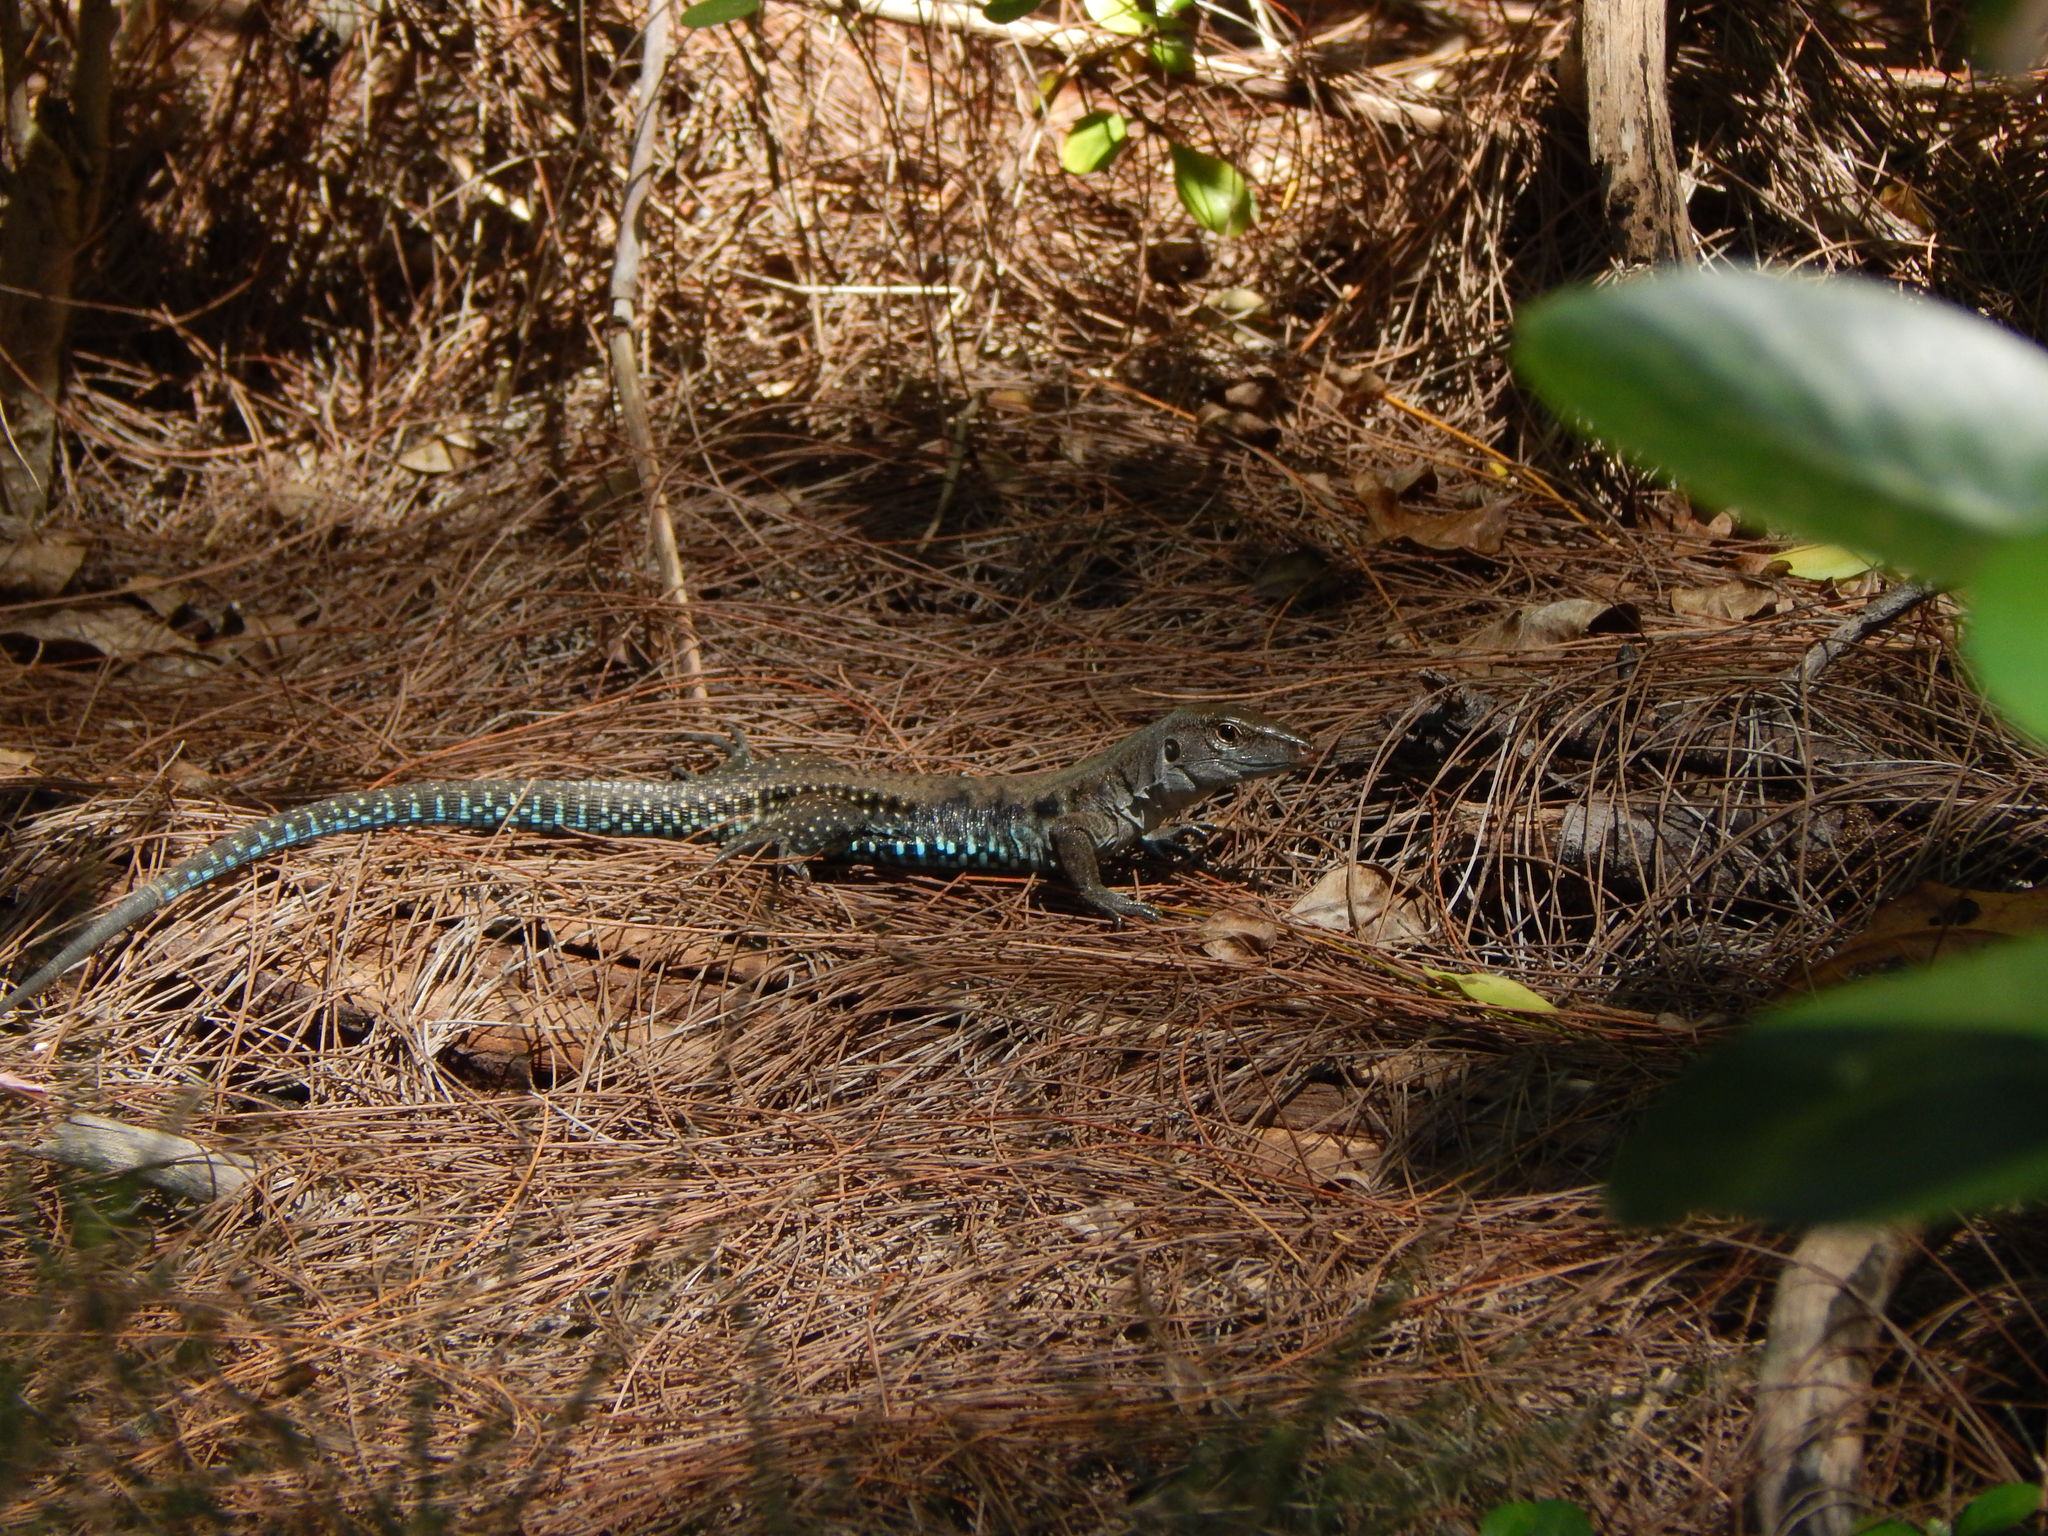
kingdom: Animalia
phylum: Chordata
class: Squamata
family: Teiidae
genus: Pholidoscelis
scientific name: Pholidoscelis exsul
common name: Common puerto rican ameiva
